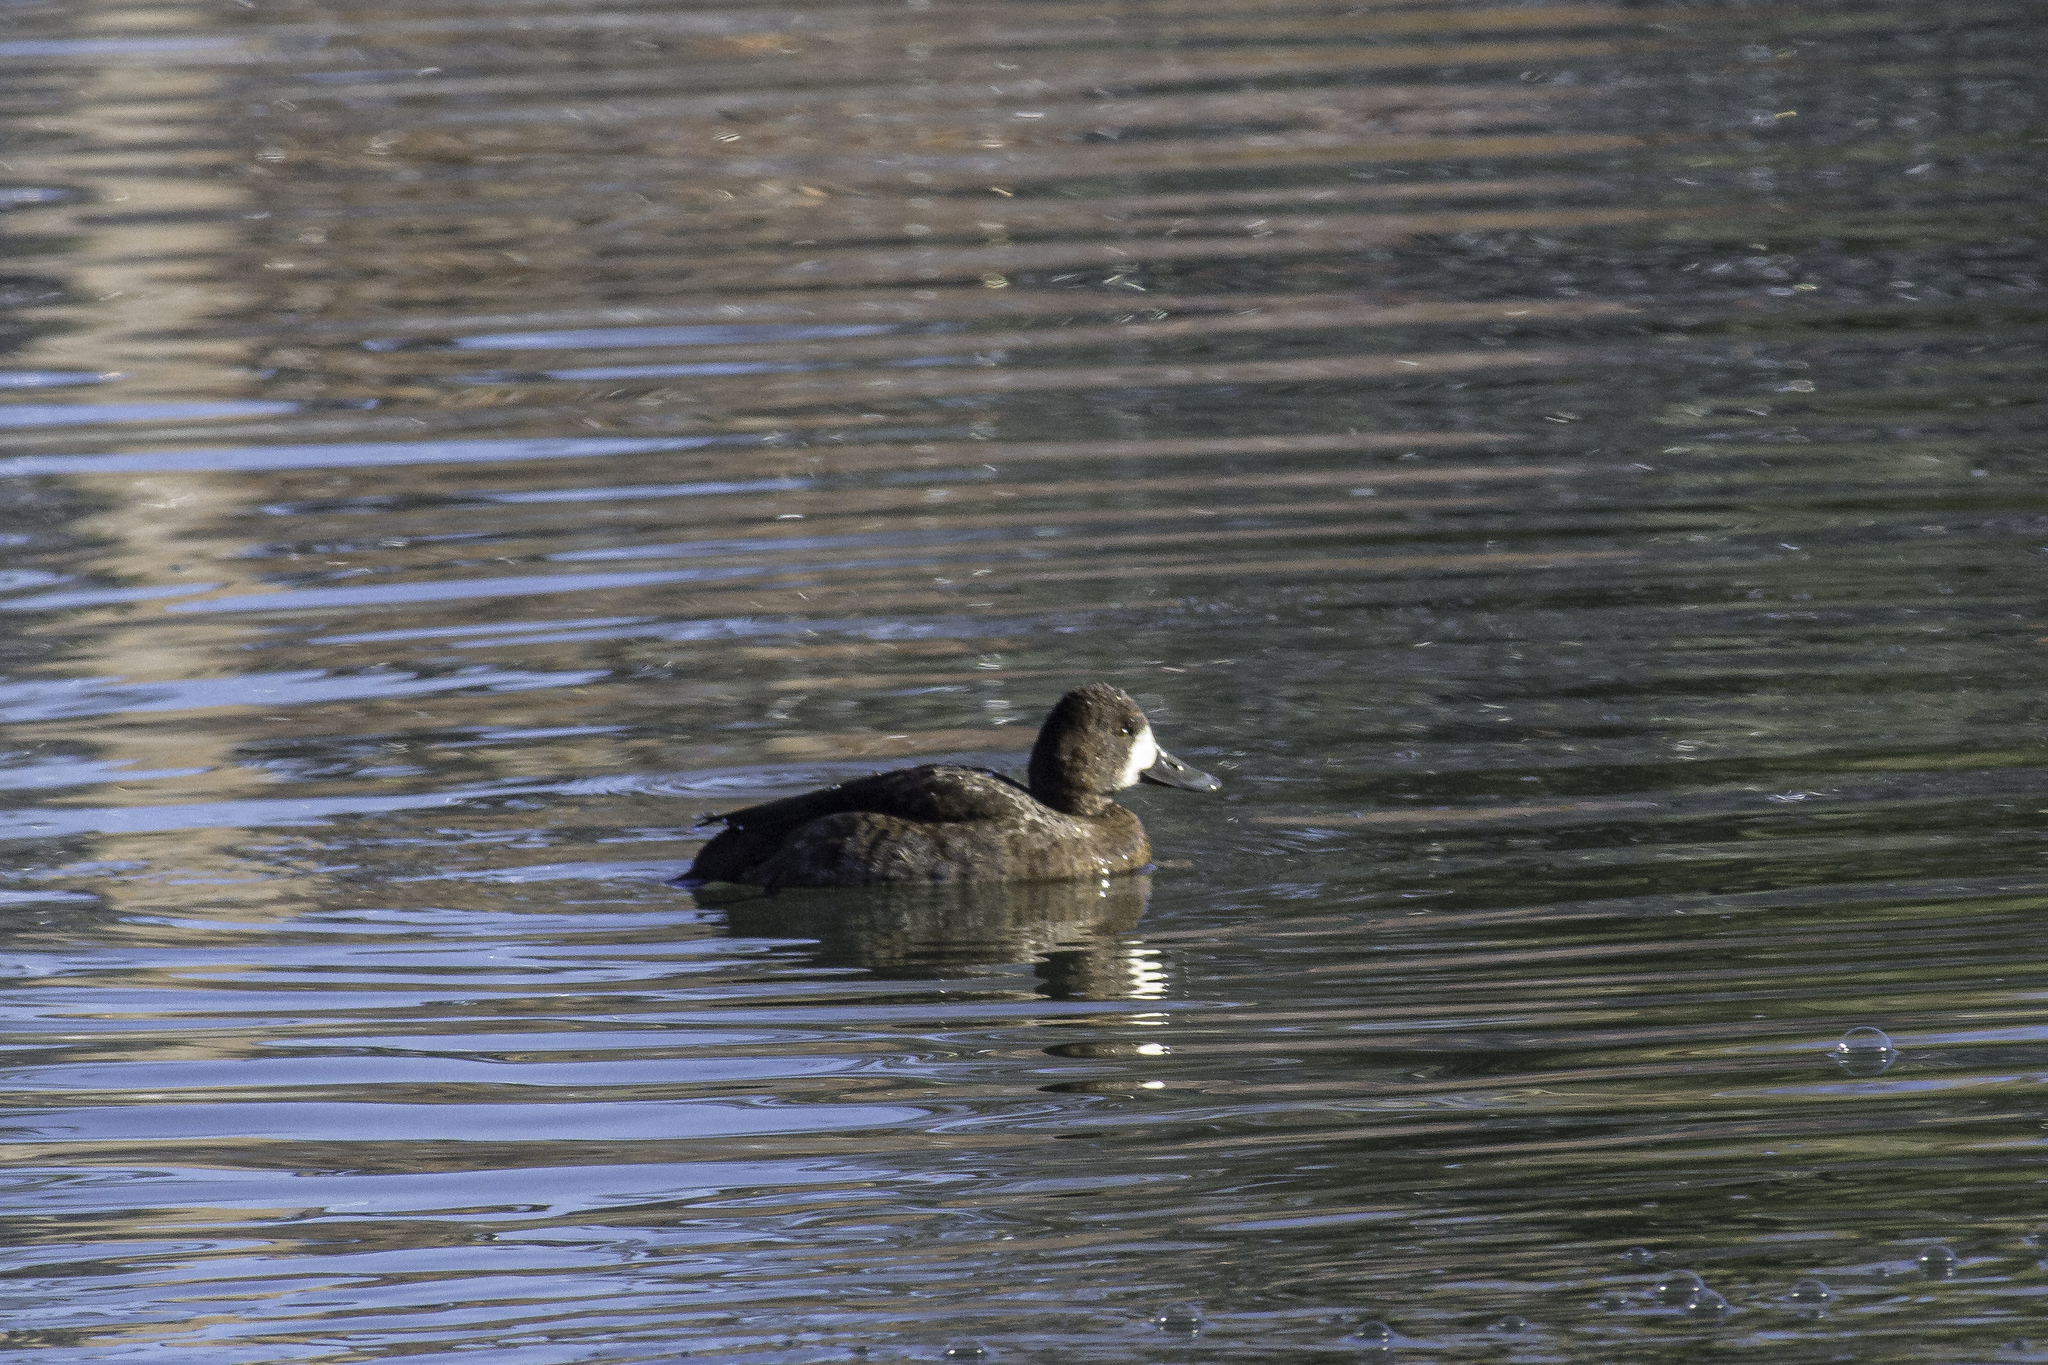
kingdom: Animalia
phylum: Chordata
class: Aves
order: Anseriformes
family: Anatidae
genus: Aythya
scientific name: Aythya affinis
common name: Lesser scaup
